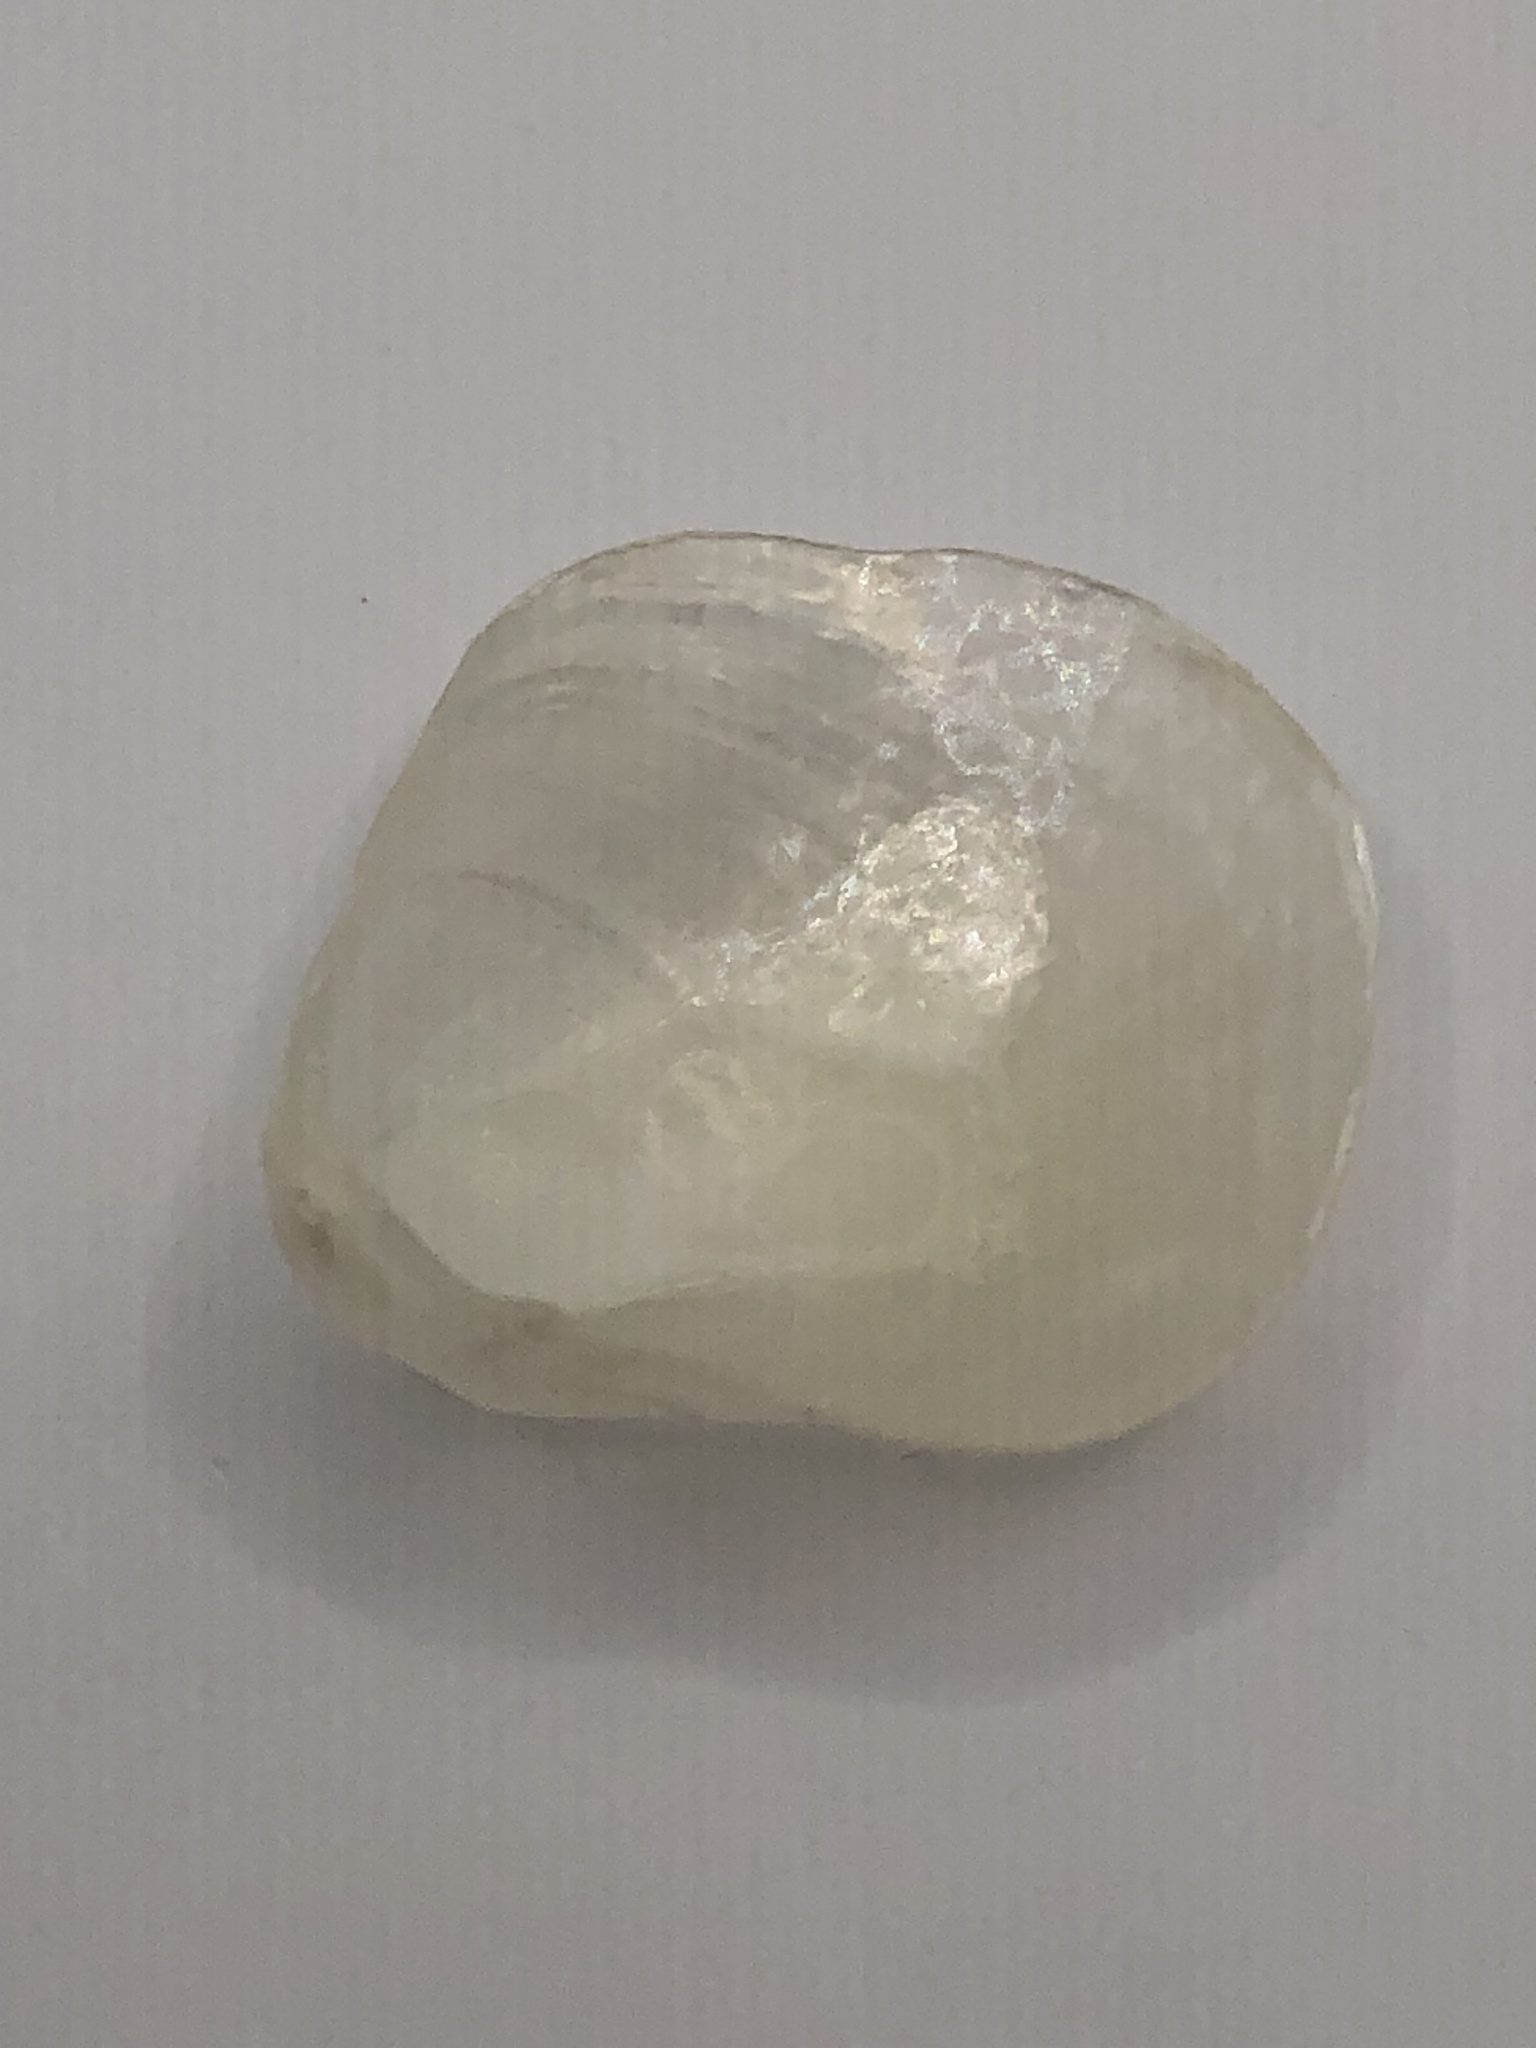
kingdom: Animalia
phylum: Mollusca
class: Bivalvia
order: Pectinida
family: Anomiidae
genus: Anomia
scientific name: Anomia simplex
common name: Common jingle shell
